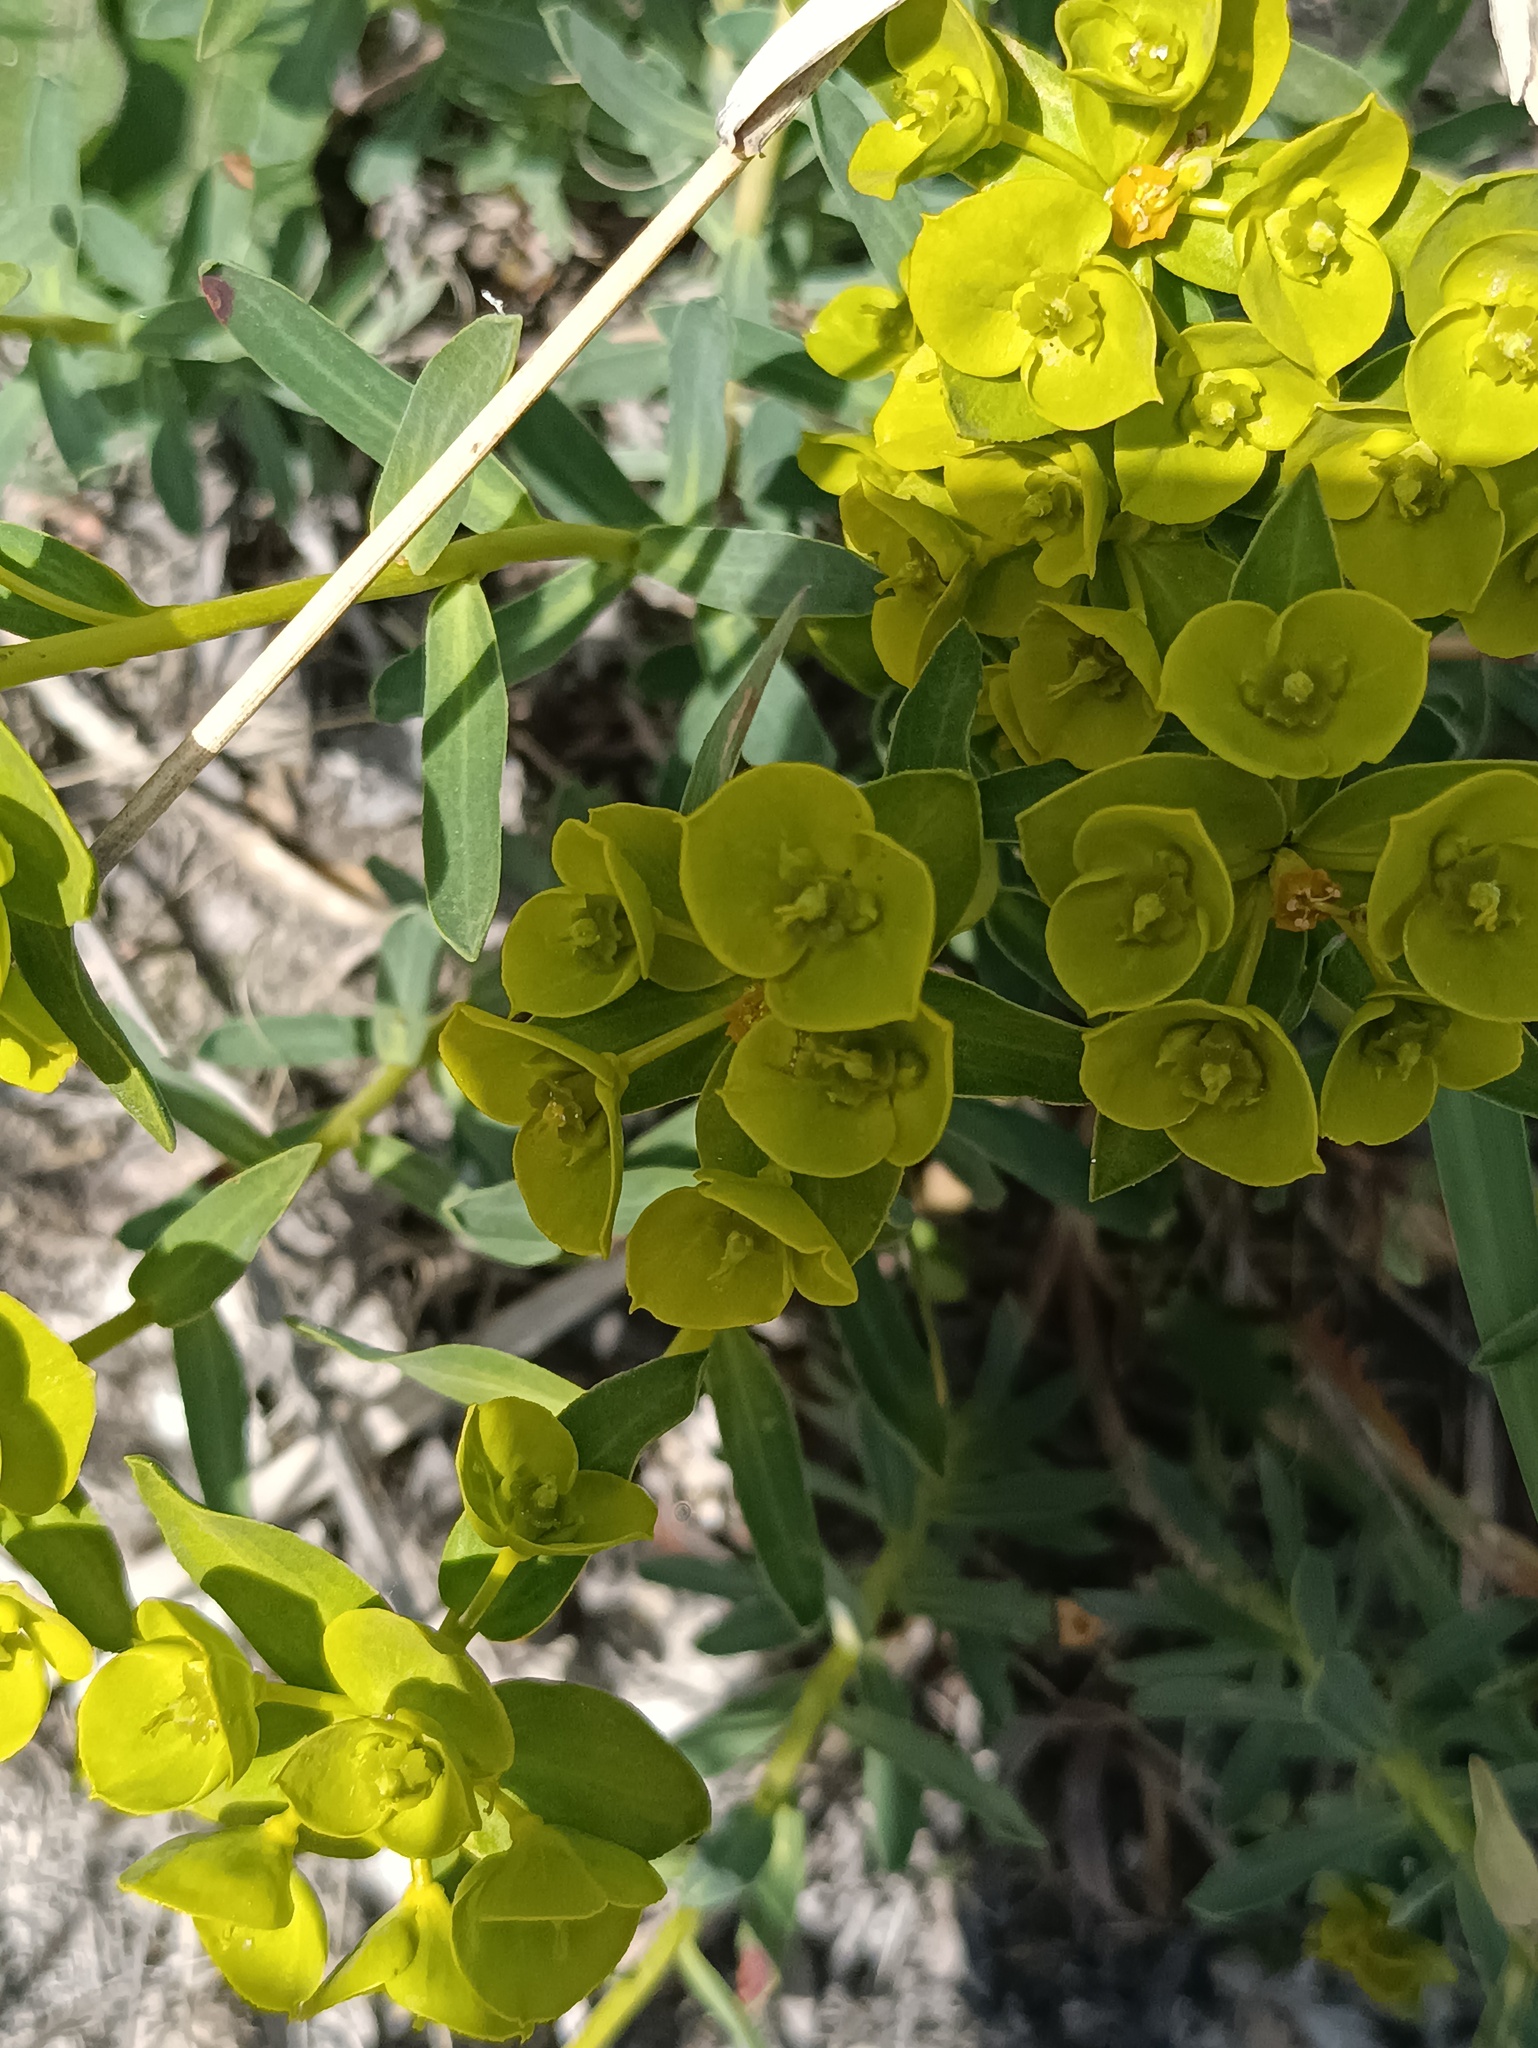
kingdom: Plantae
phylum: Tracheophyta
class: Magnoliopsida
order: Malpighiales
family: Euphorbiaceae
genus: Euphorbia
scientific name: Euphorbia glareosa
